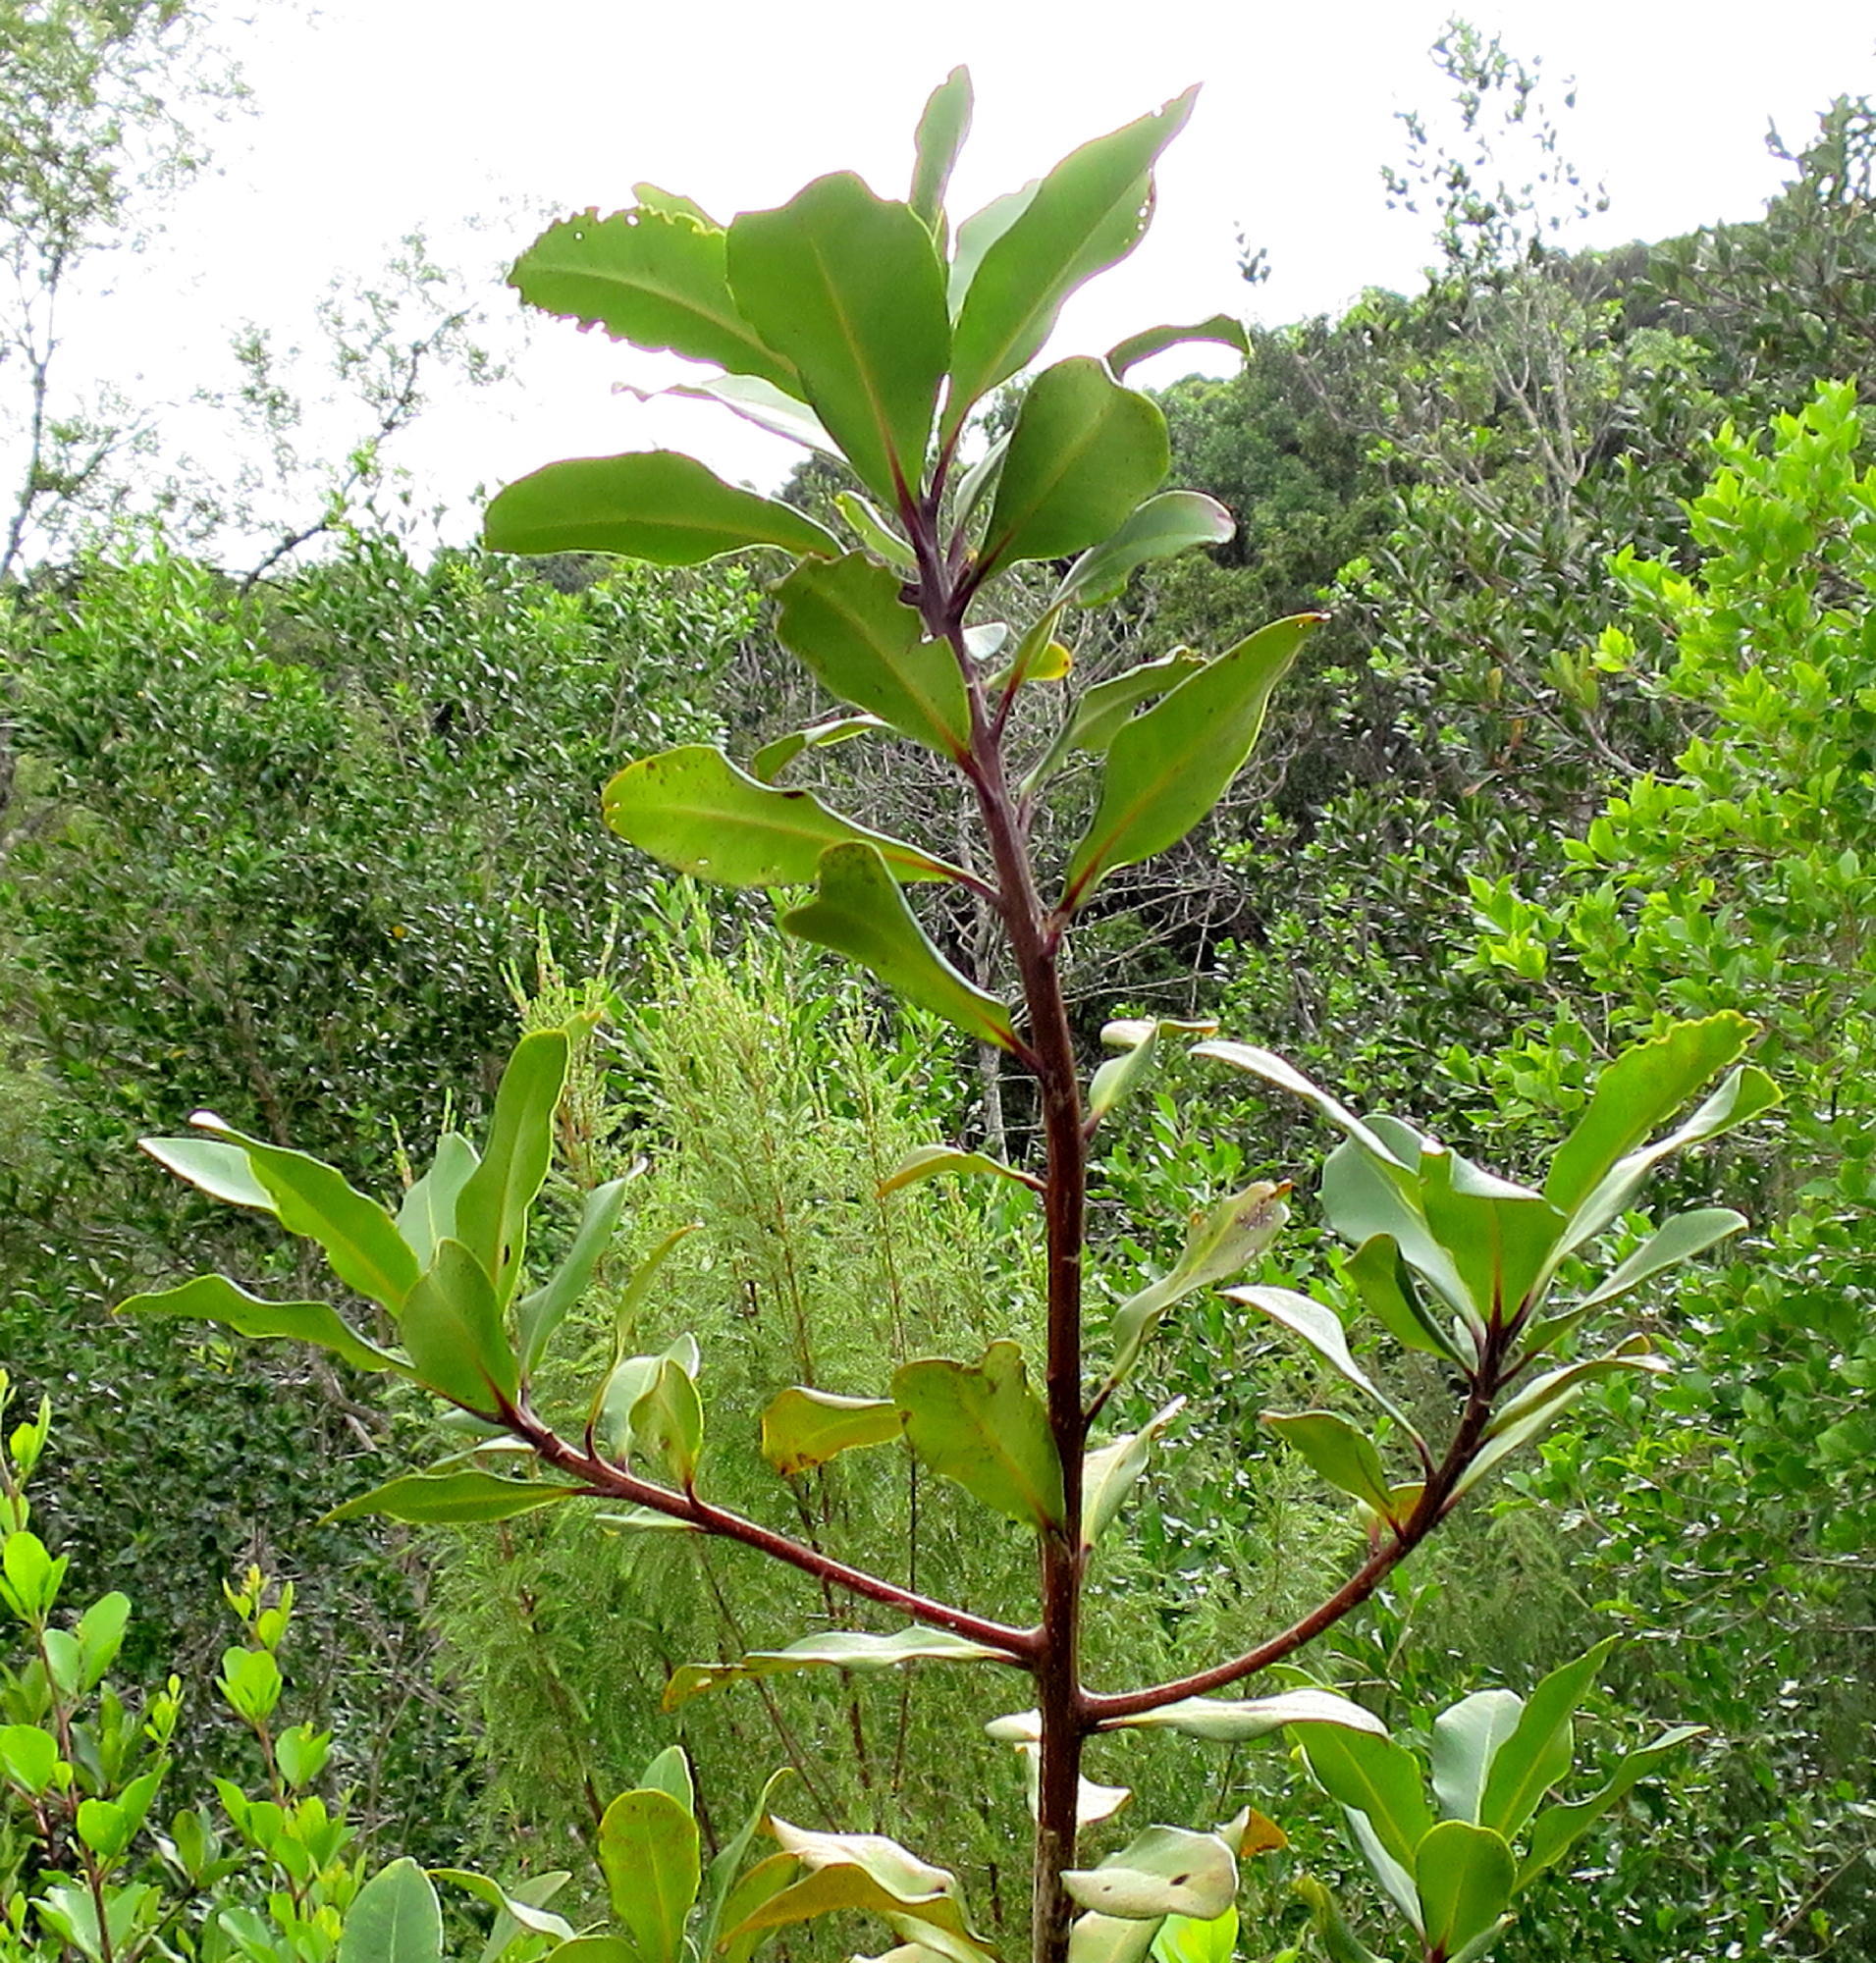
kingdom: Plantae
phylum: Tracheophyta
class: Magnoliopsida
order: Ericales
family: Primulaceae
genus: Myrsine
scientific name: Myrsine melanophloeos
